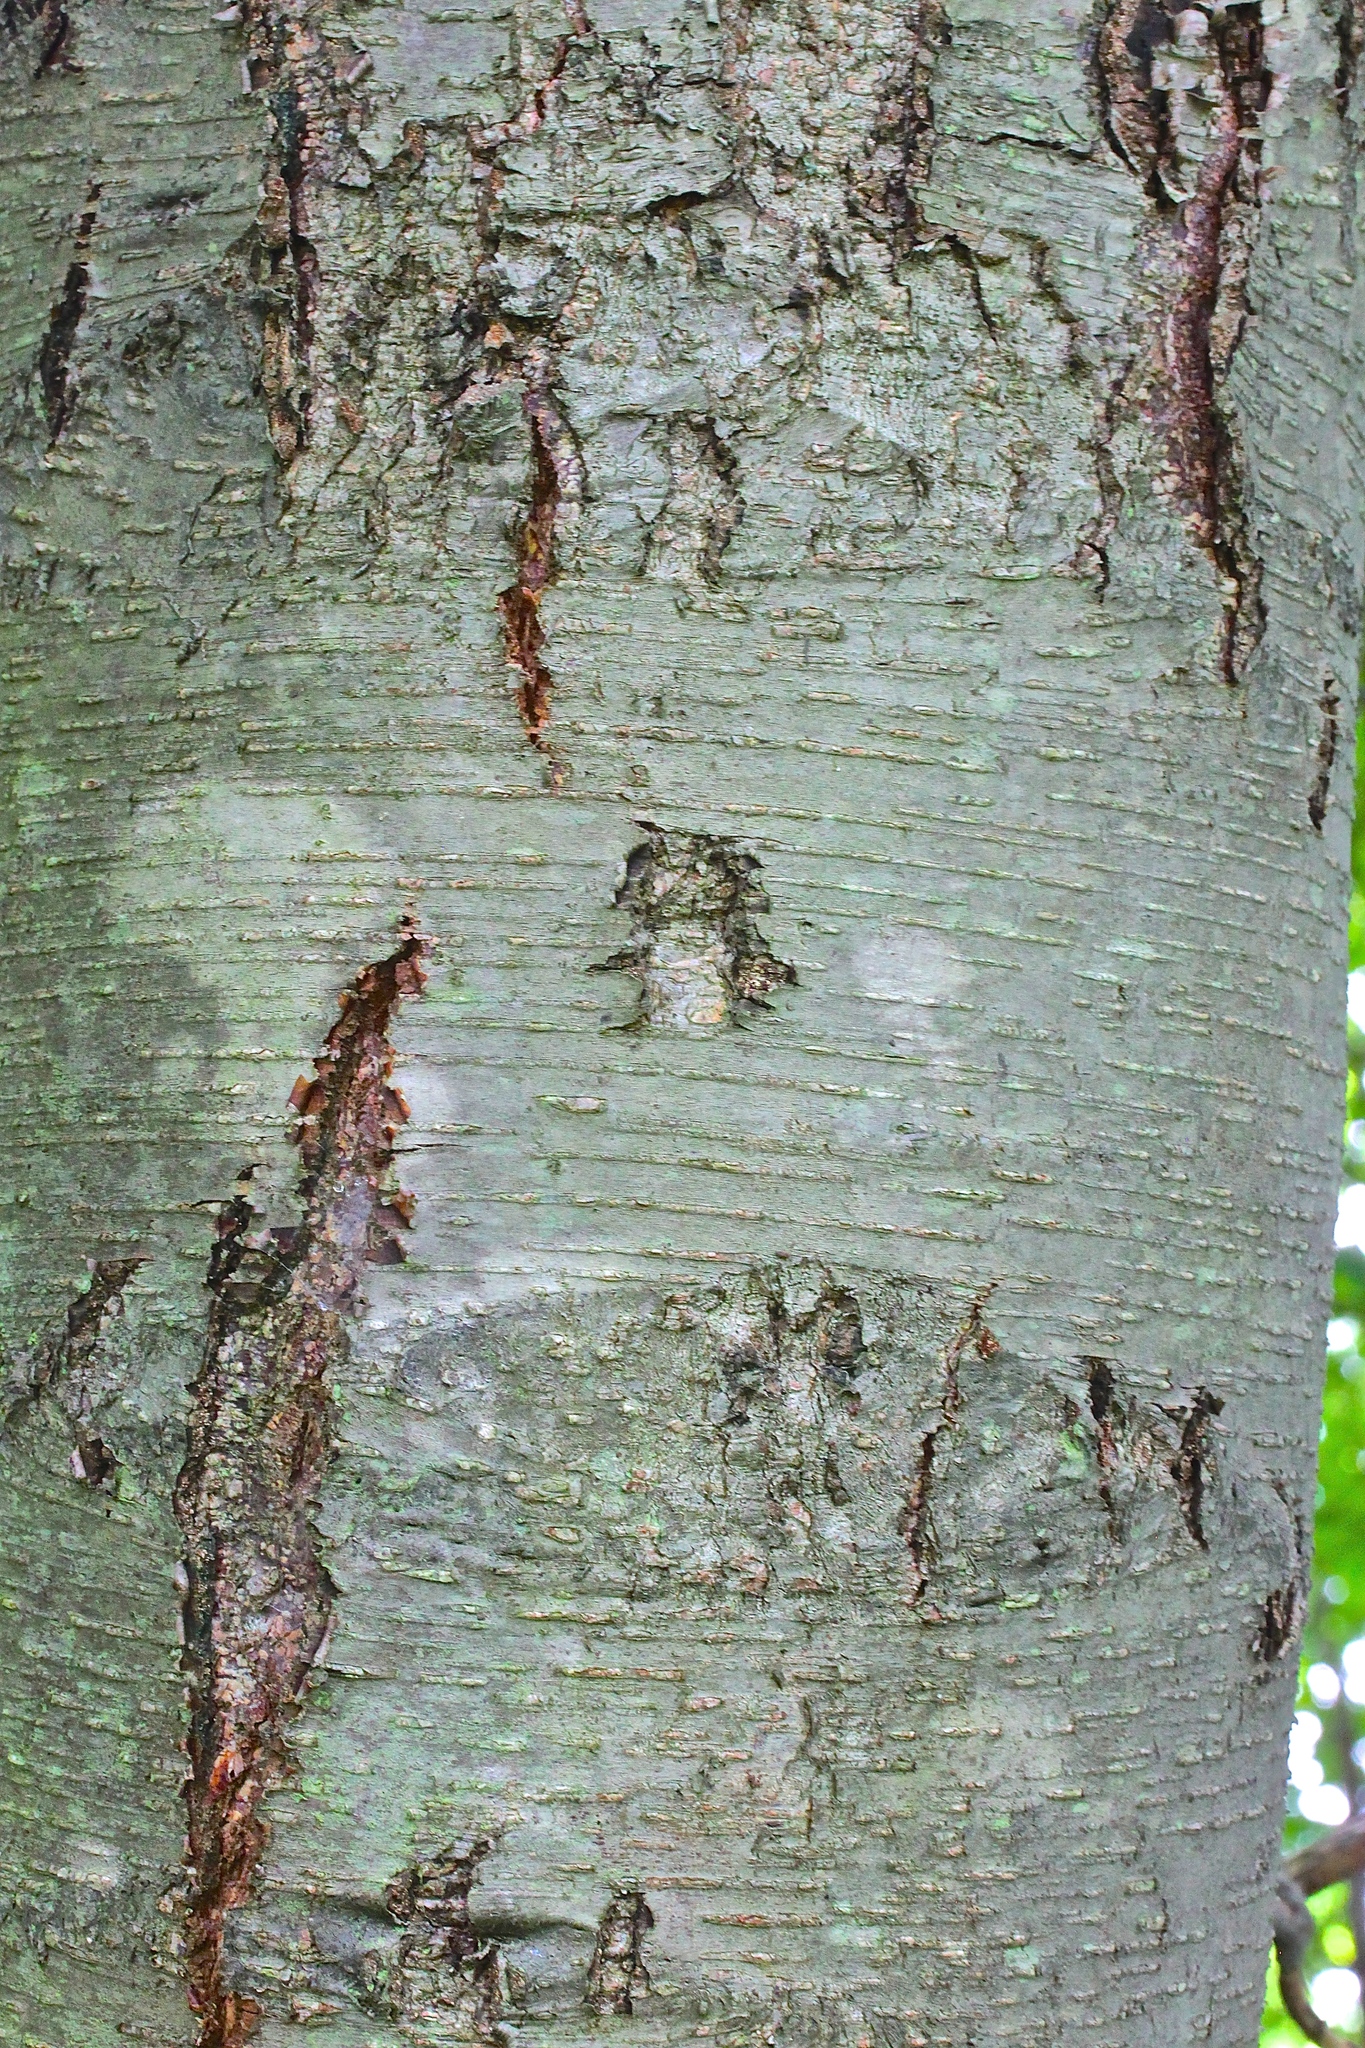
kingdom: Plantae
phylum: Tracheophyta
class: Magnoliopsida
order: Fagales
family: Betulaceae
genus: Betula
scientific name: Betula lenta
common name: Black birch
